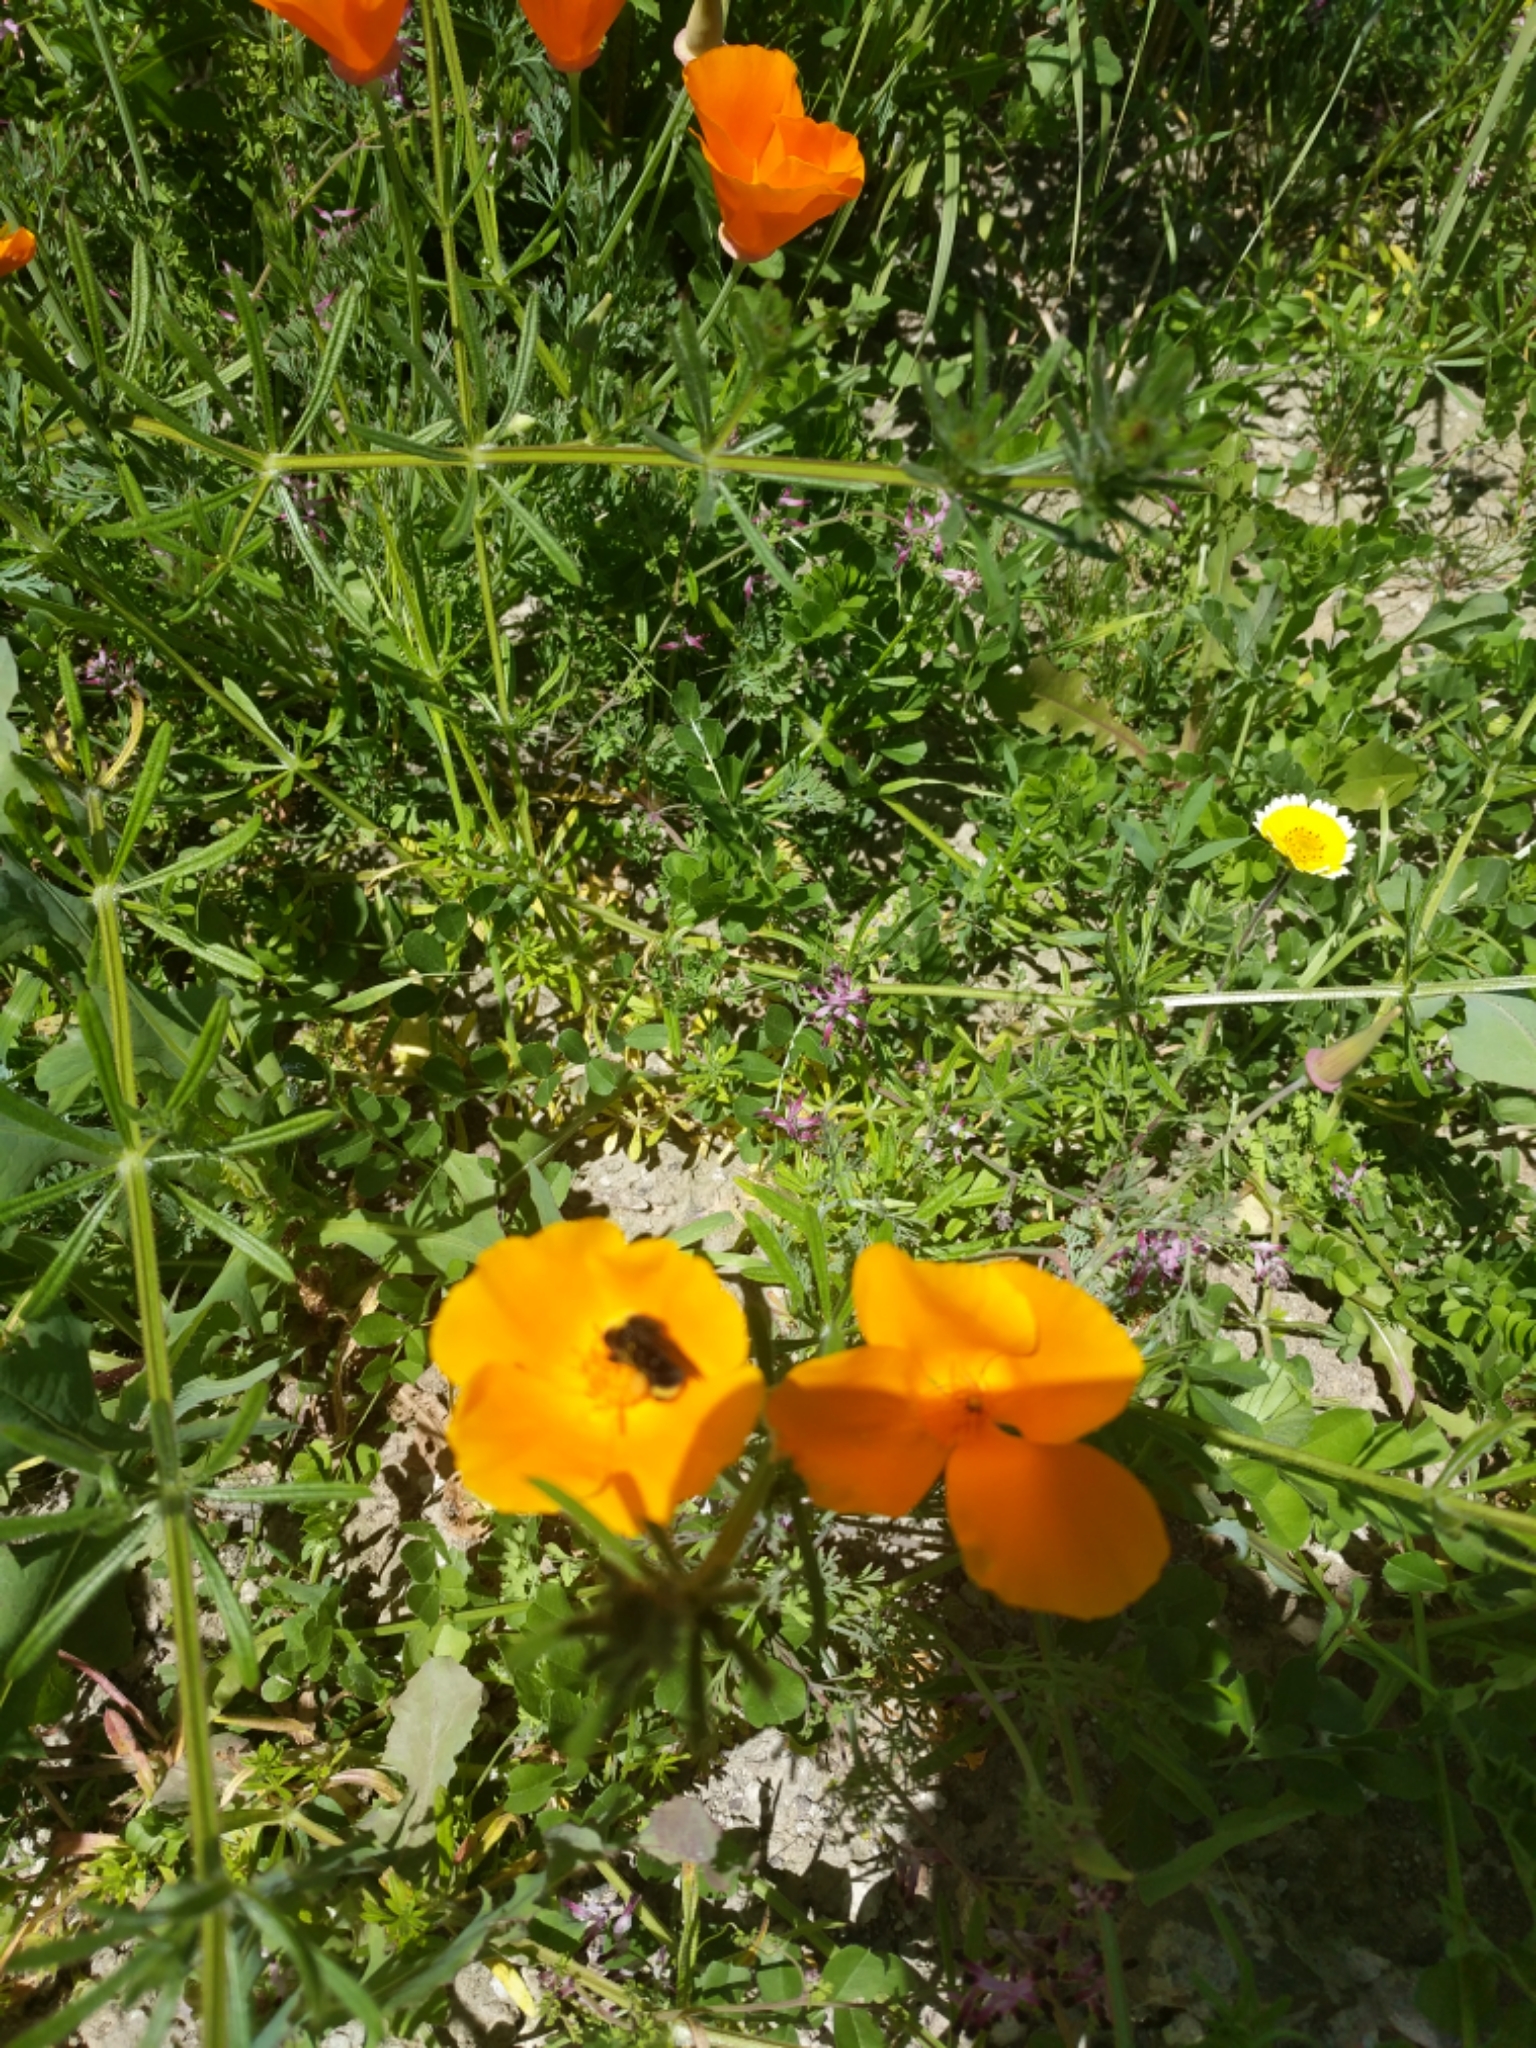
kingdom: Animalia
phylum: Arthropoda
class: Insecta
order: Hymenoptera
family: Apidae
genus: Bombus
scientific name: Bombus vosnesenskii
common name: Vosnesensky bumble bee
